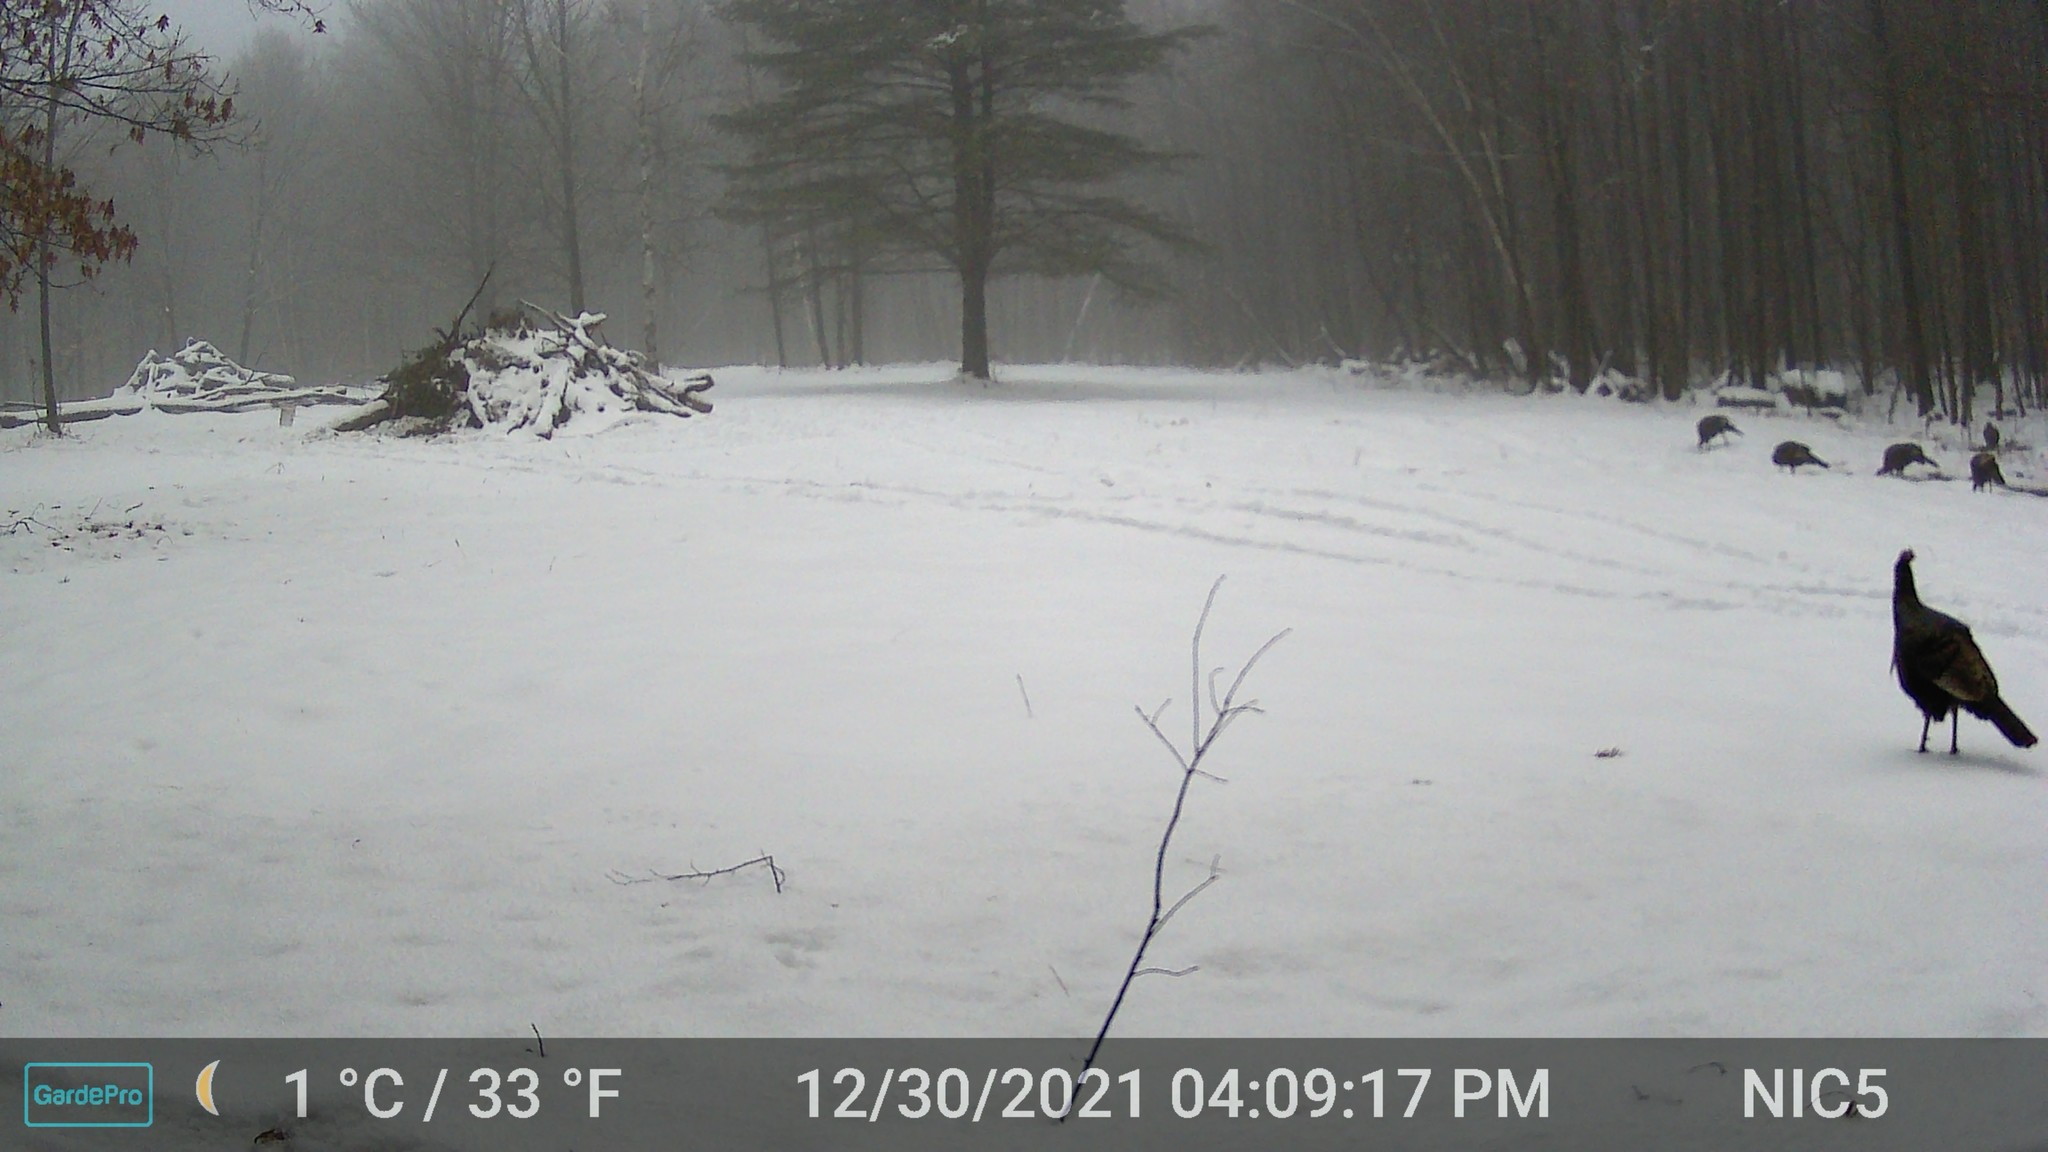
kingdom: Animalia
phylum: Chordata
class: Aves
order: Galliformes
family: Phasianidae
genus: Meleagris
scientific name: Meleagris gallopavo
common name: Wild turkey
